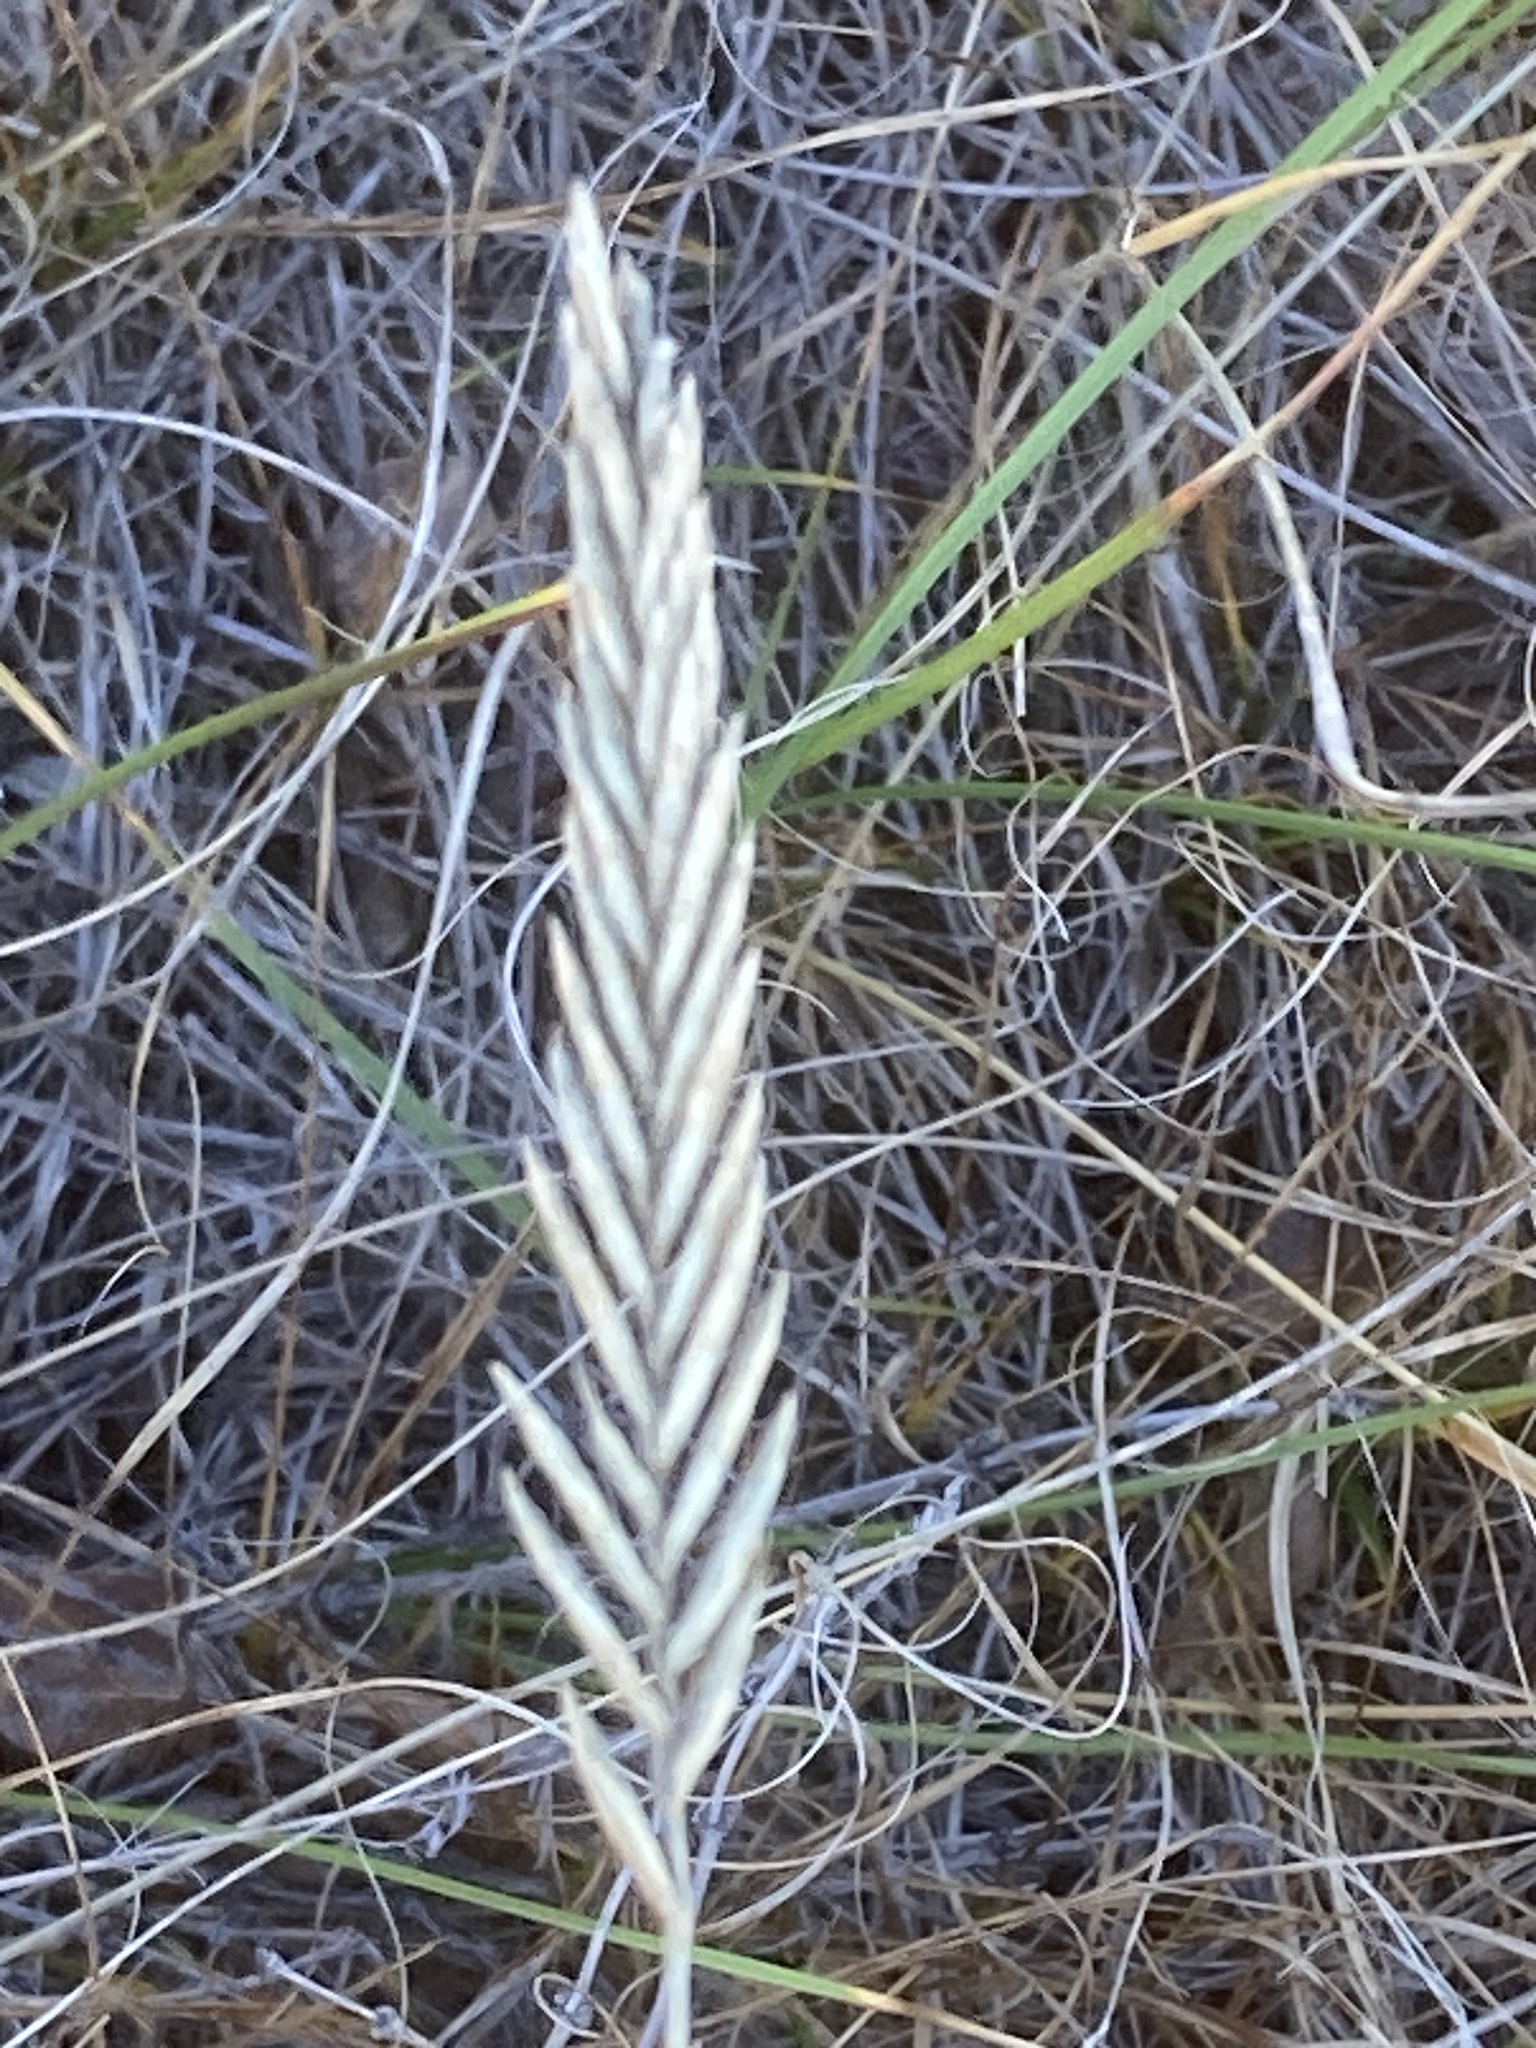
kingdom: Plantae
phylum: Tracheophyta
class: Liliopsida
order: Poales
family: Poaceae
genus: Agropyron
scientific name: Agropyron cristatum
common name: Crested wheatgrass
